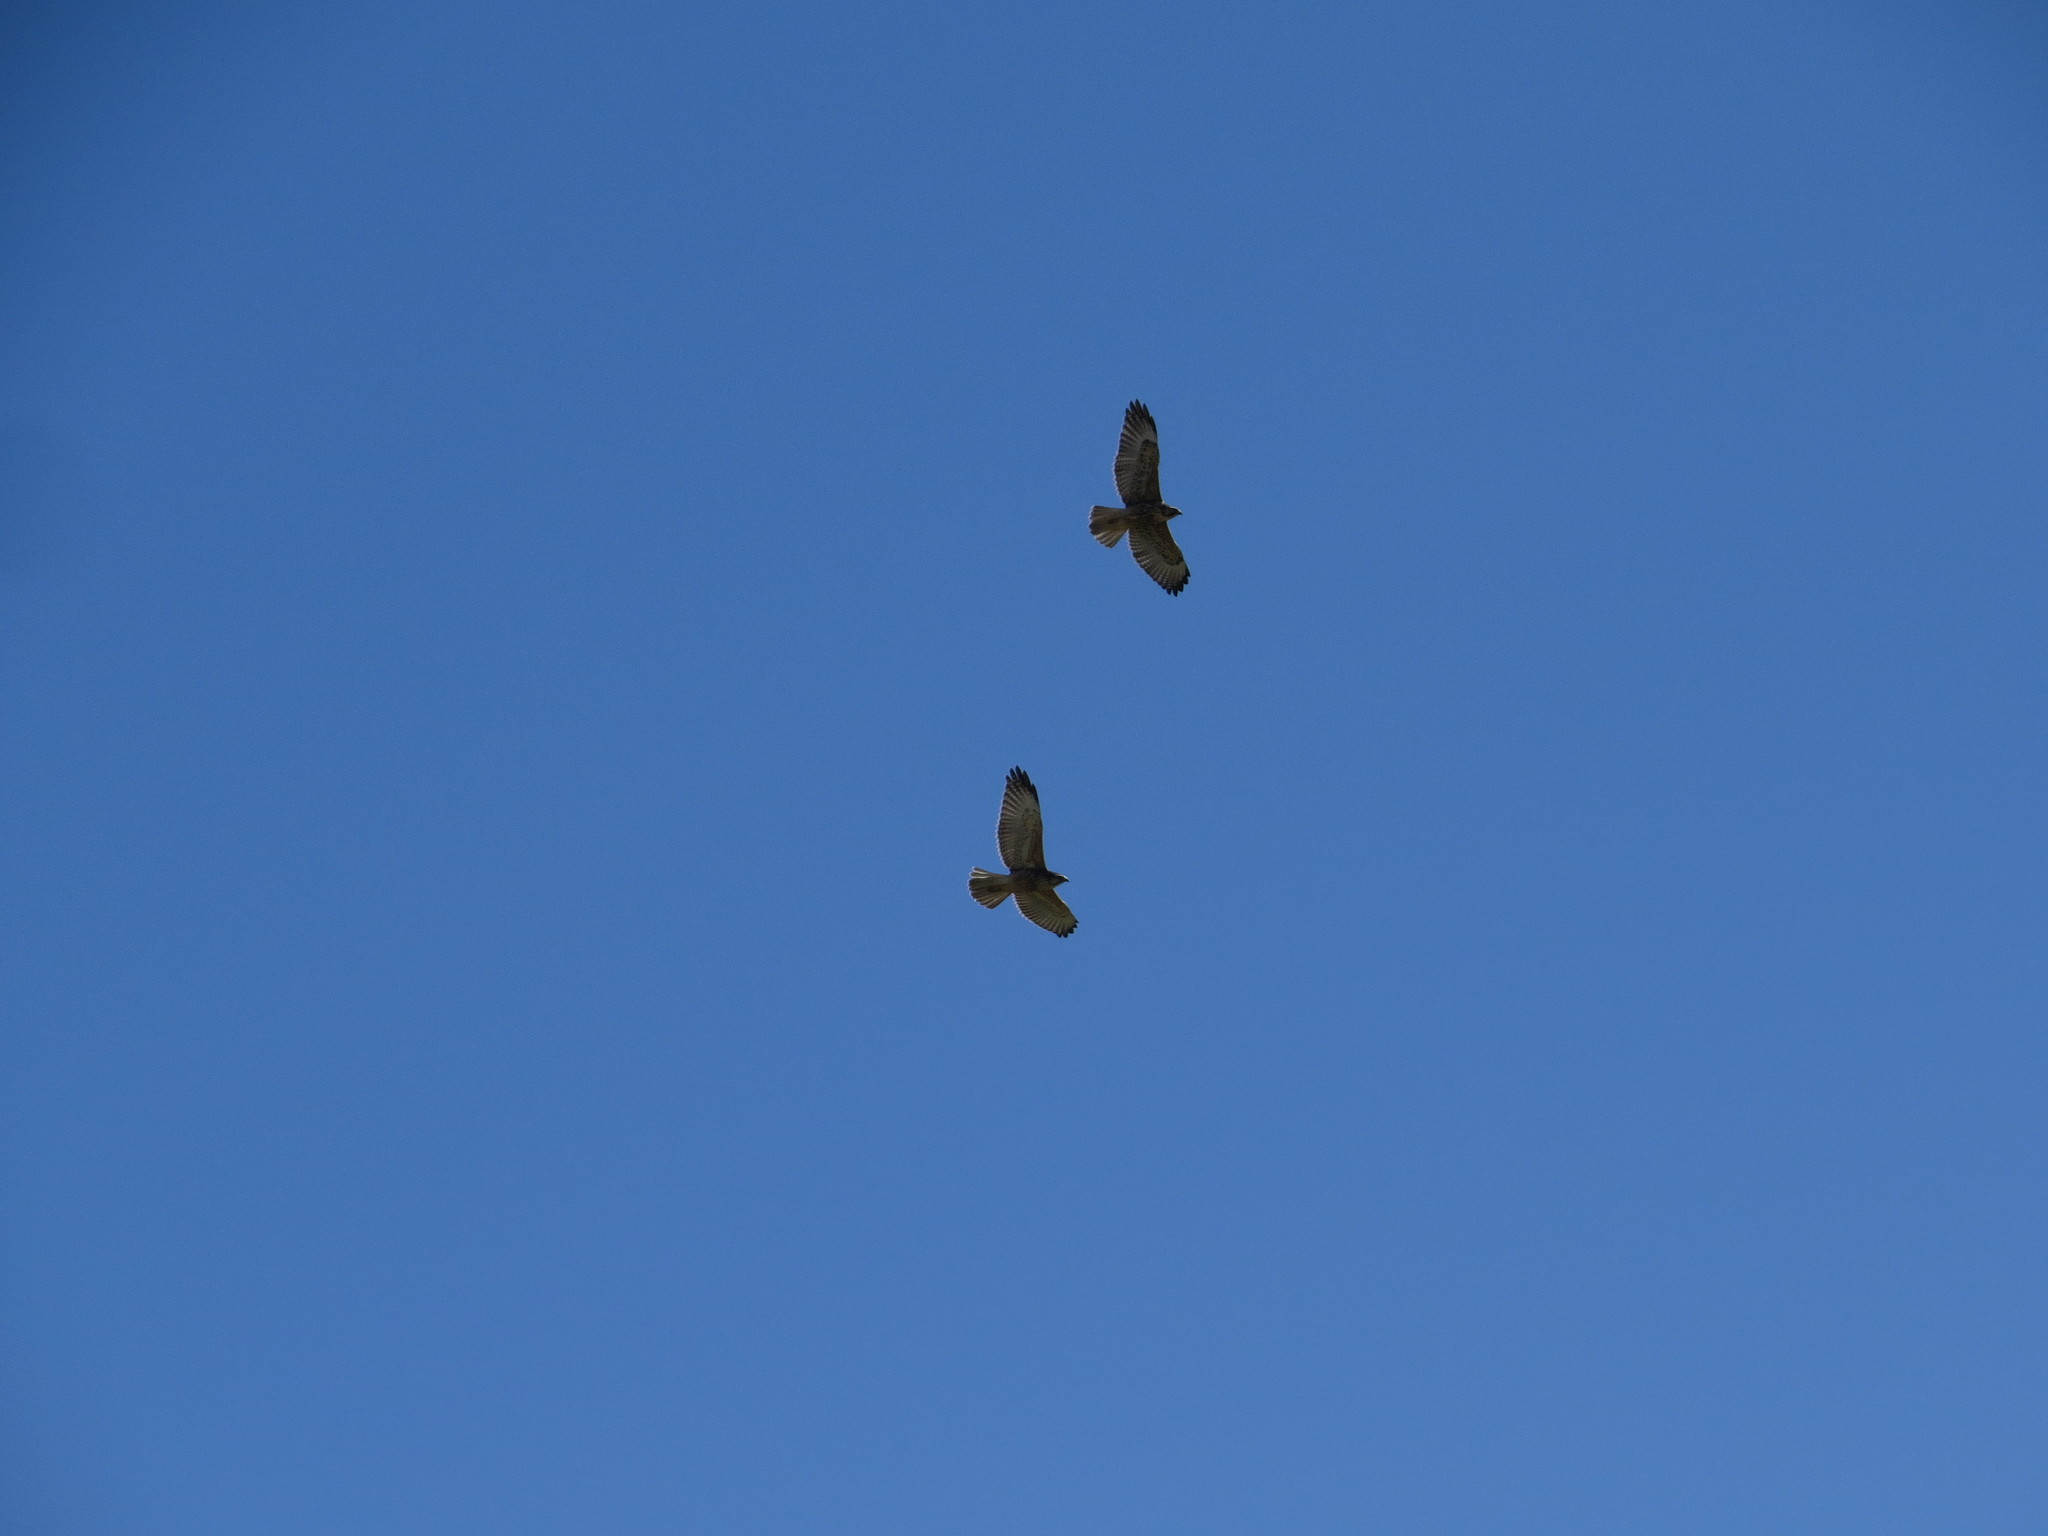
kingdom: Animalia
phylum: Chordata
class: Aves
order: Accipitriformes
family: Accipitridae
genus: Buteo
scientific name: Buteo polyosoma
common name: Variable hawk
